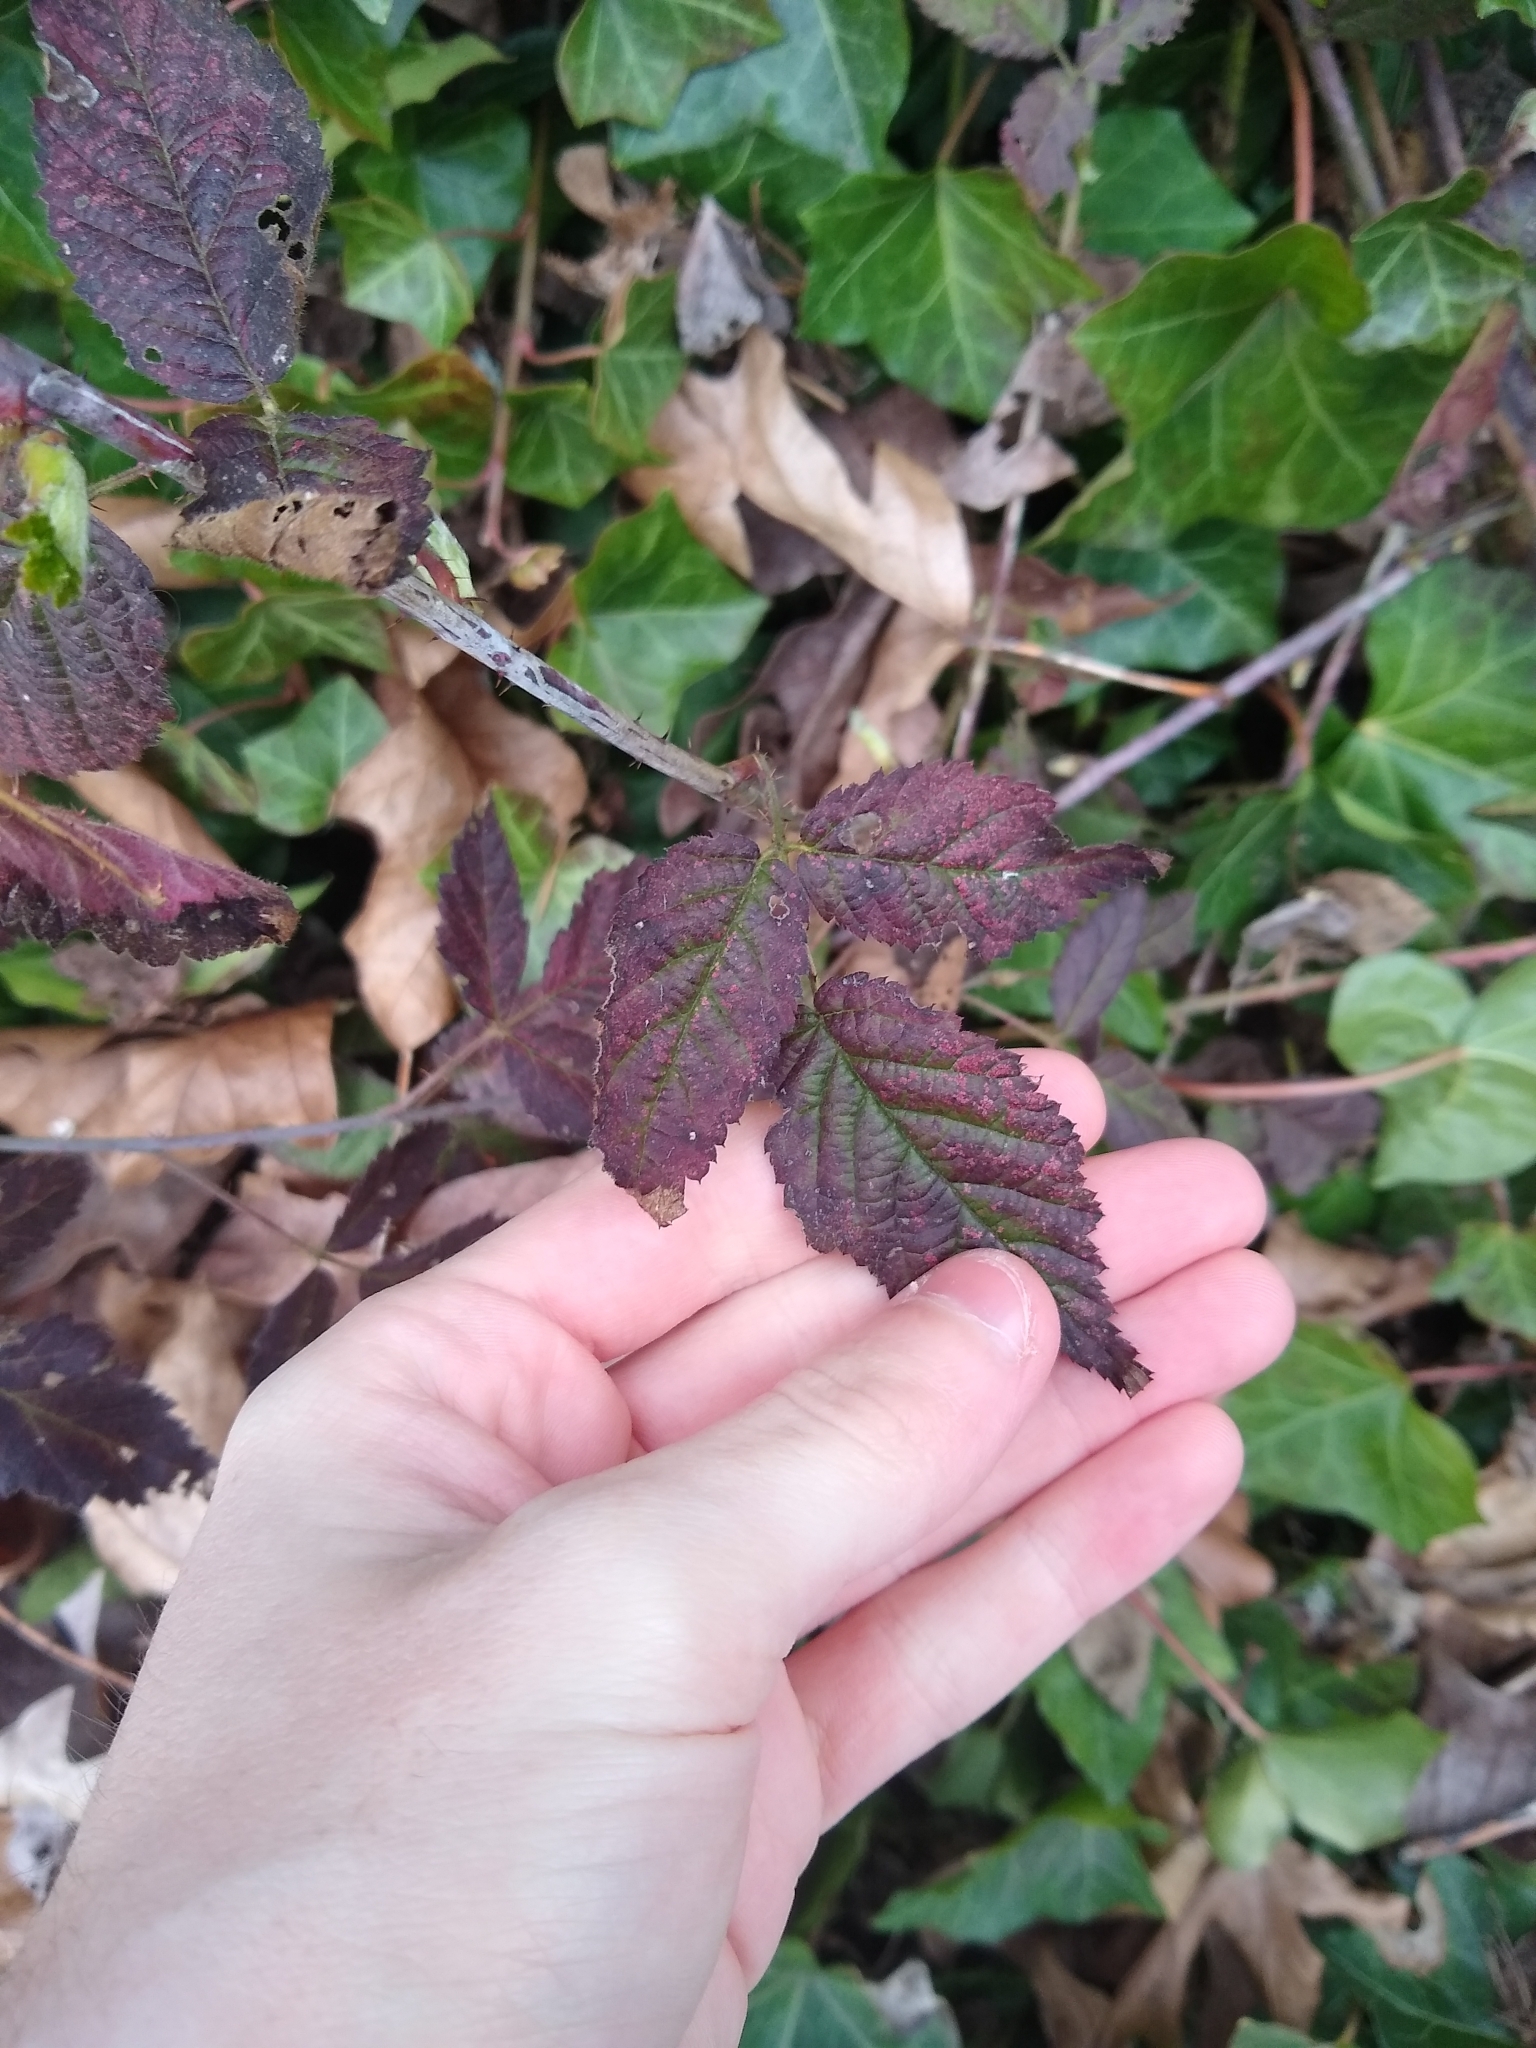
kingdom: Plantae
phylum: Tracheophyta
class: Magnoliopsida
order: Rosales
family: Rosaceae
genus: Rubus
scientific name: Rubus ursinus
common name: Pacific blackberry
